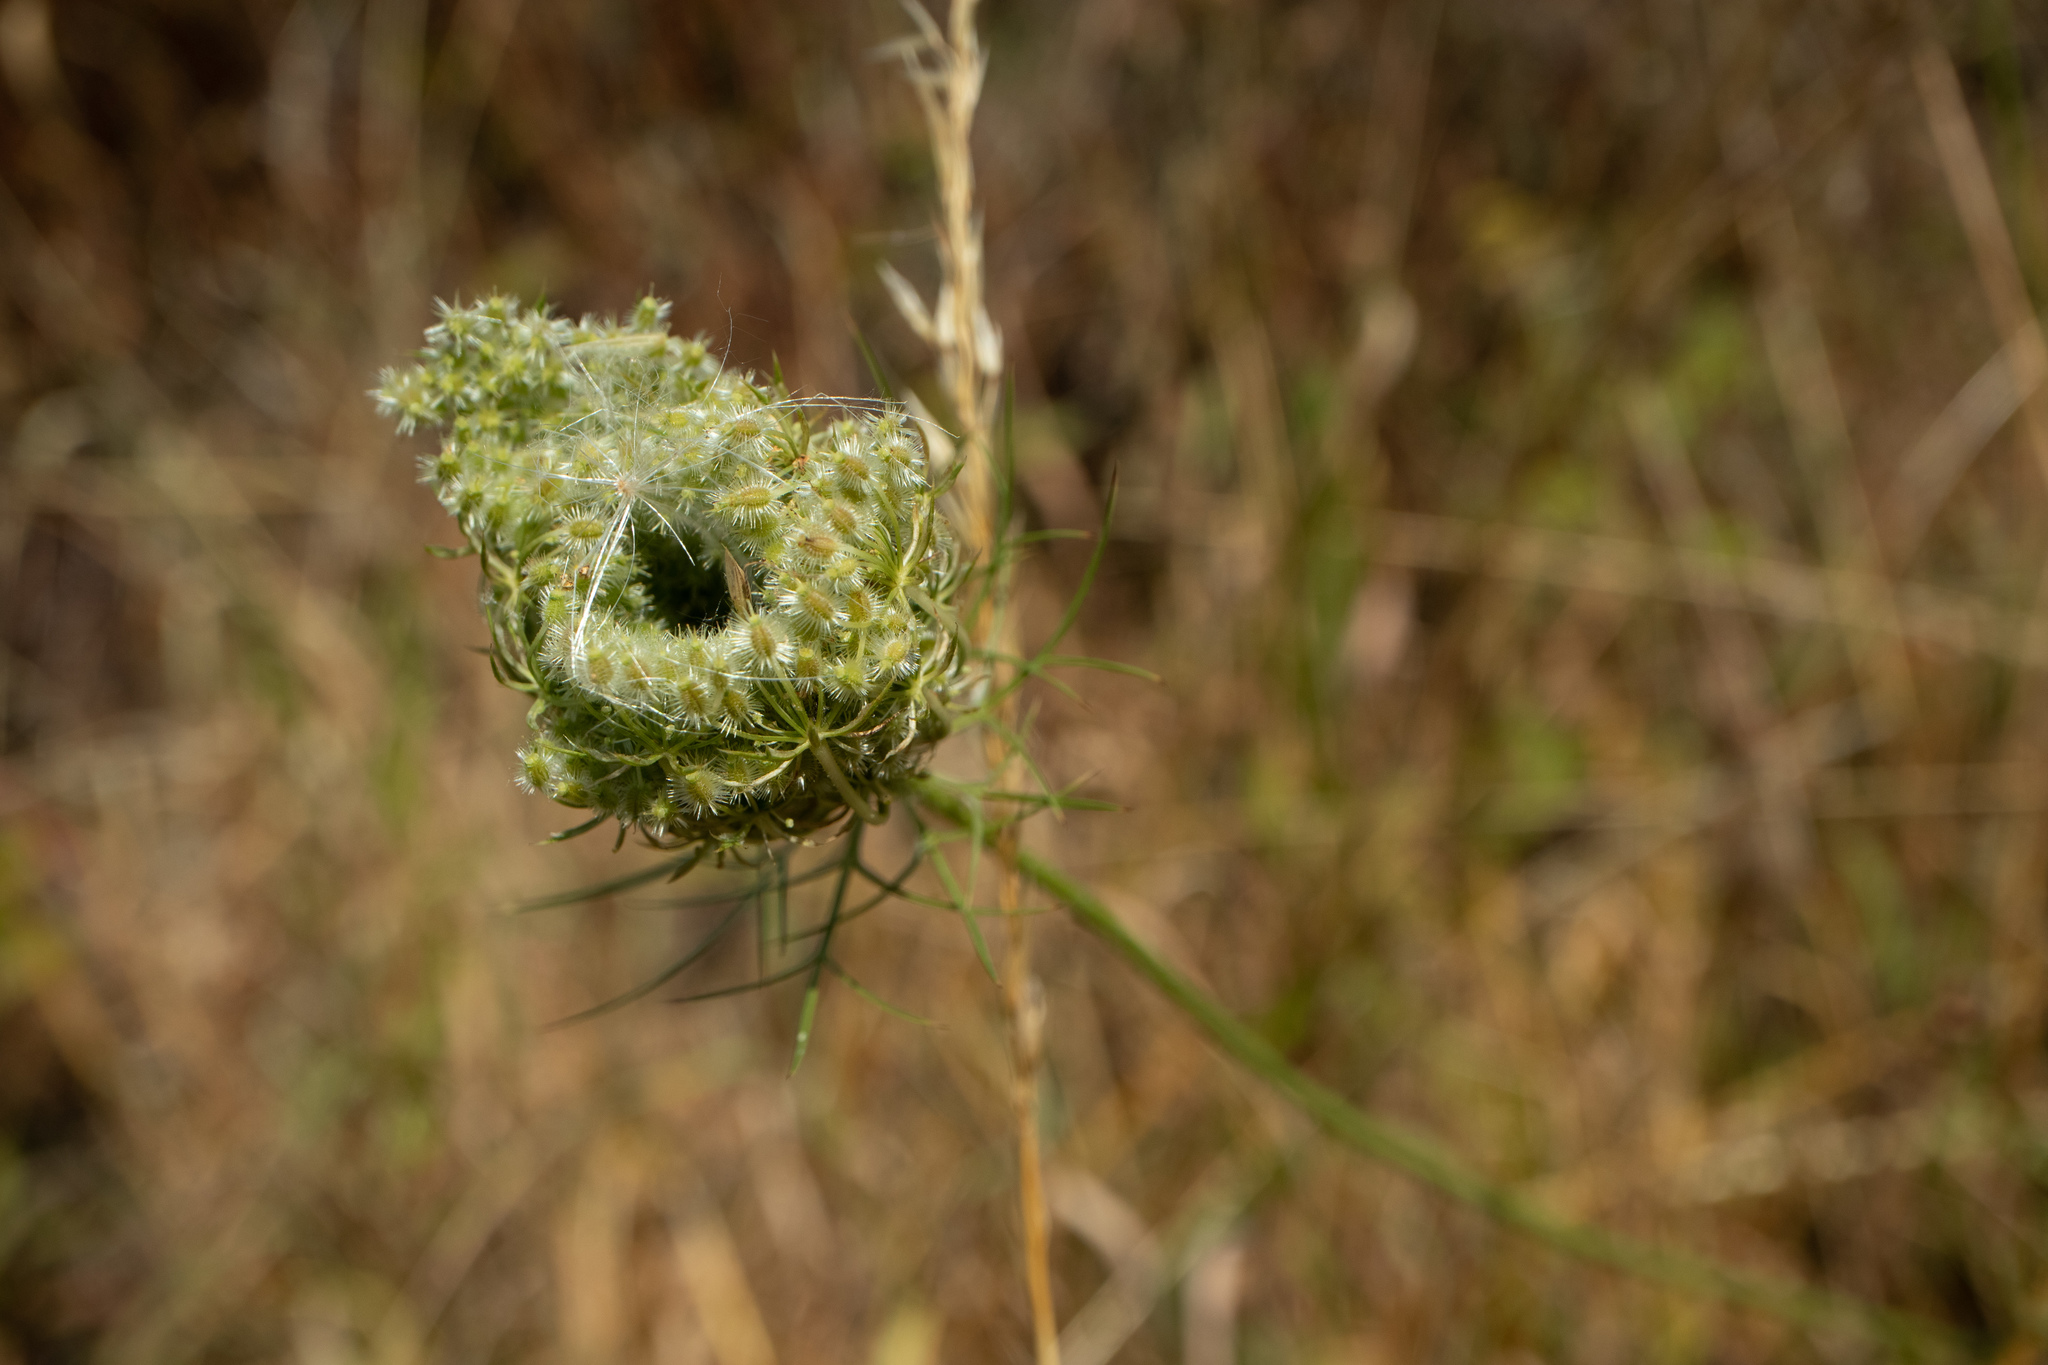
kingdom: Plantae
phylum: Tracheophyta
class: Magnoliopsida
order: Apiales
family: Apiaceae
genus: Daucus
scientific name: Daucus carota
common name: Wild carrot
